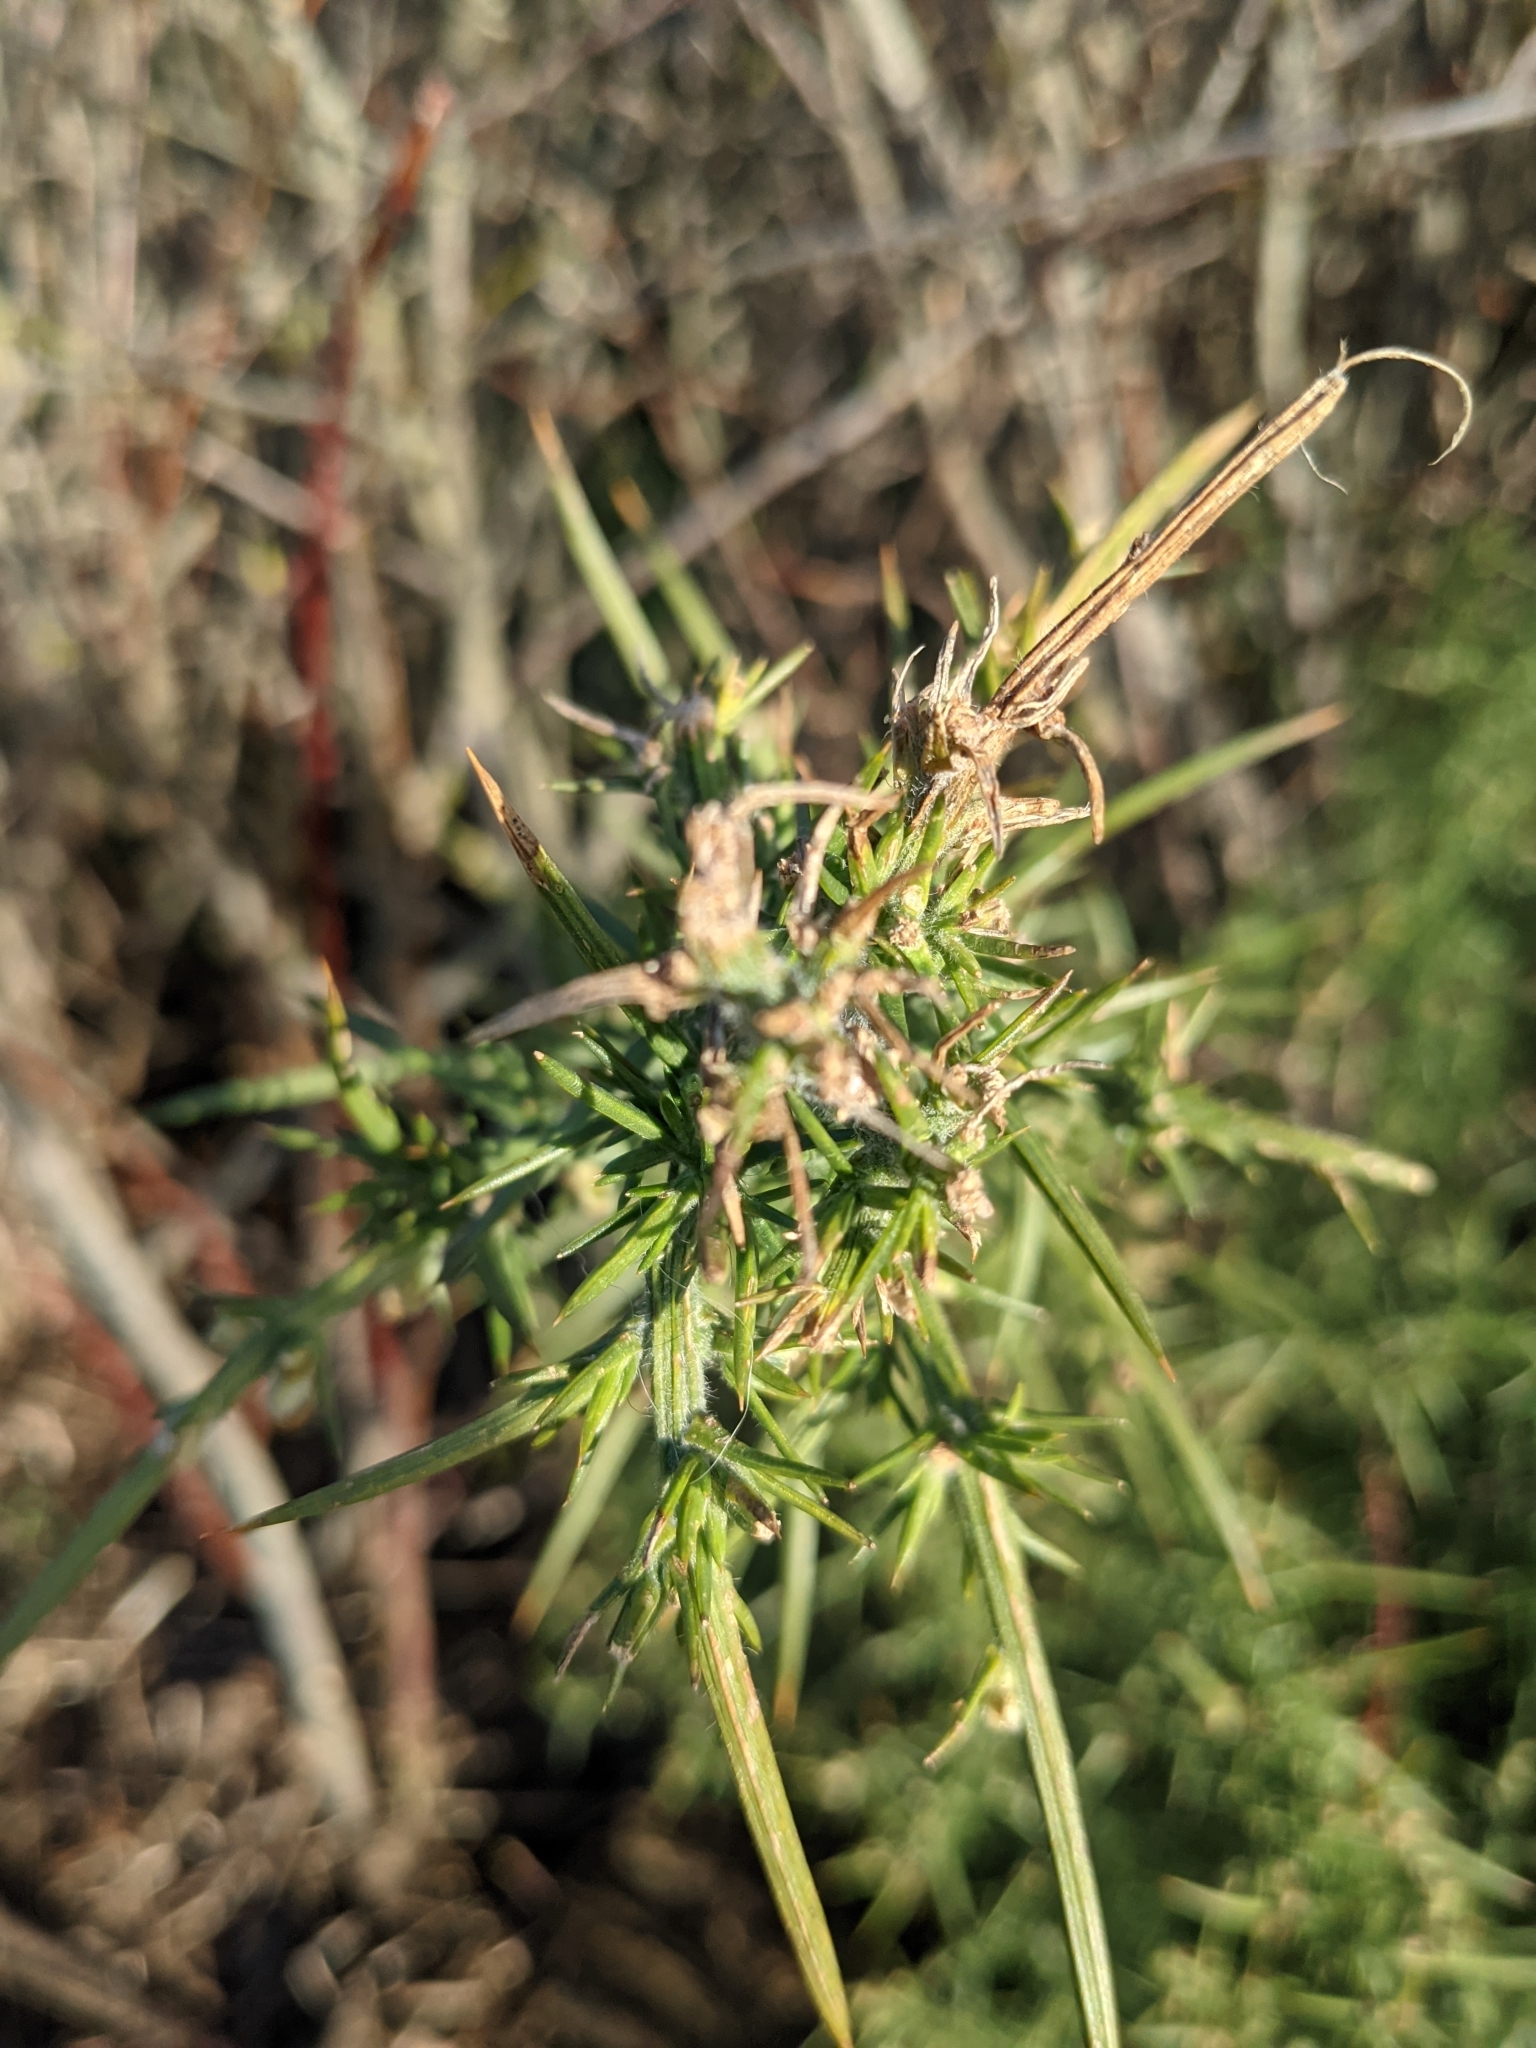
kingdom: Plantae
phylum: Tracheophyta
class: Magnoliopsida
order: Fabales
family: Fabaceae
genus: Ulex
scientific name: Ulex europaeus
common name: Common gorse
